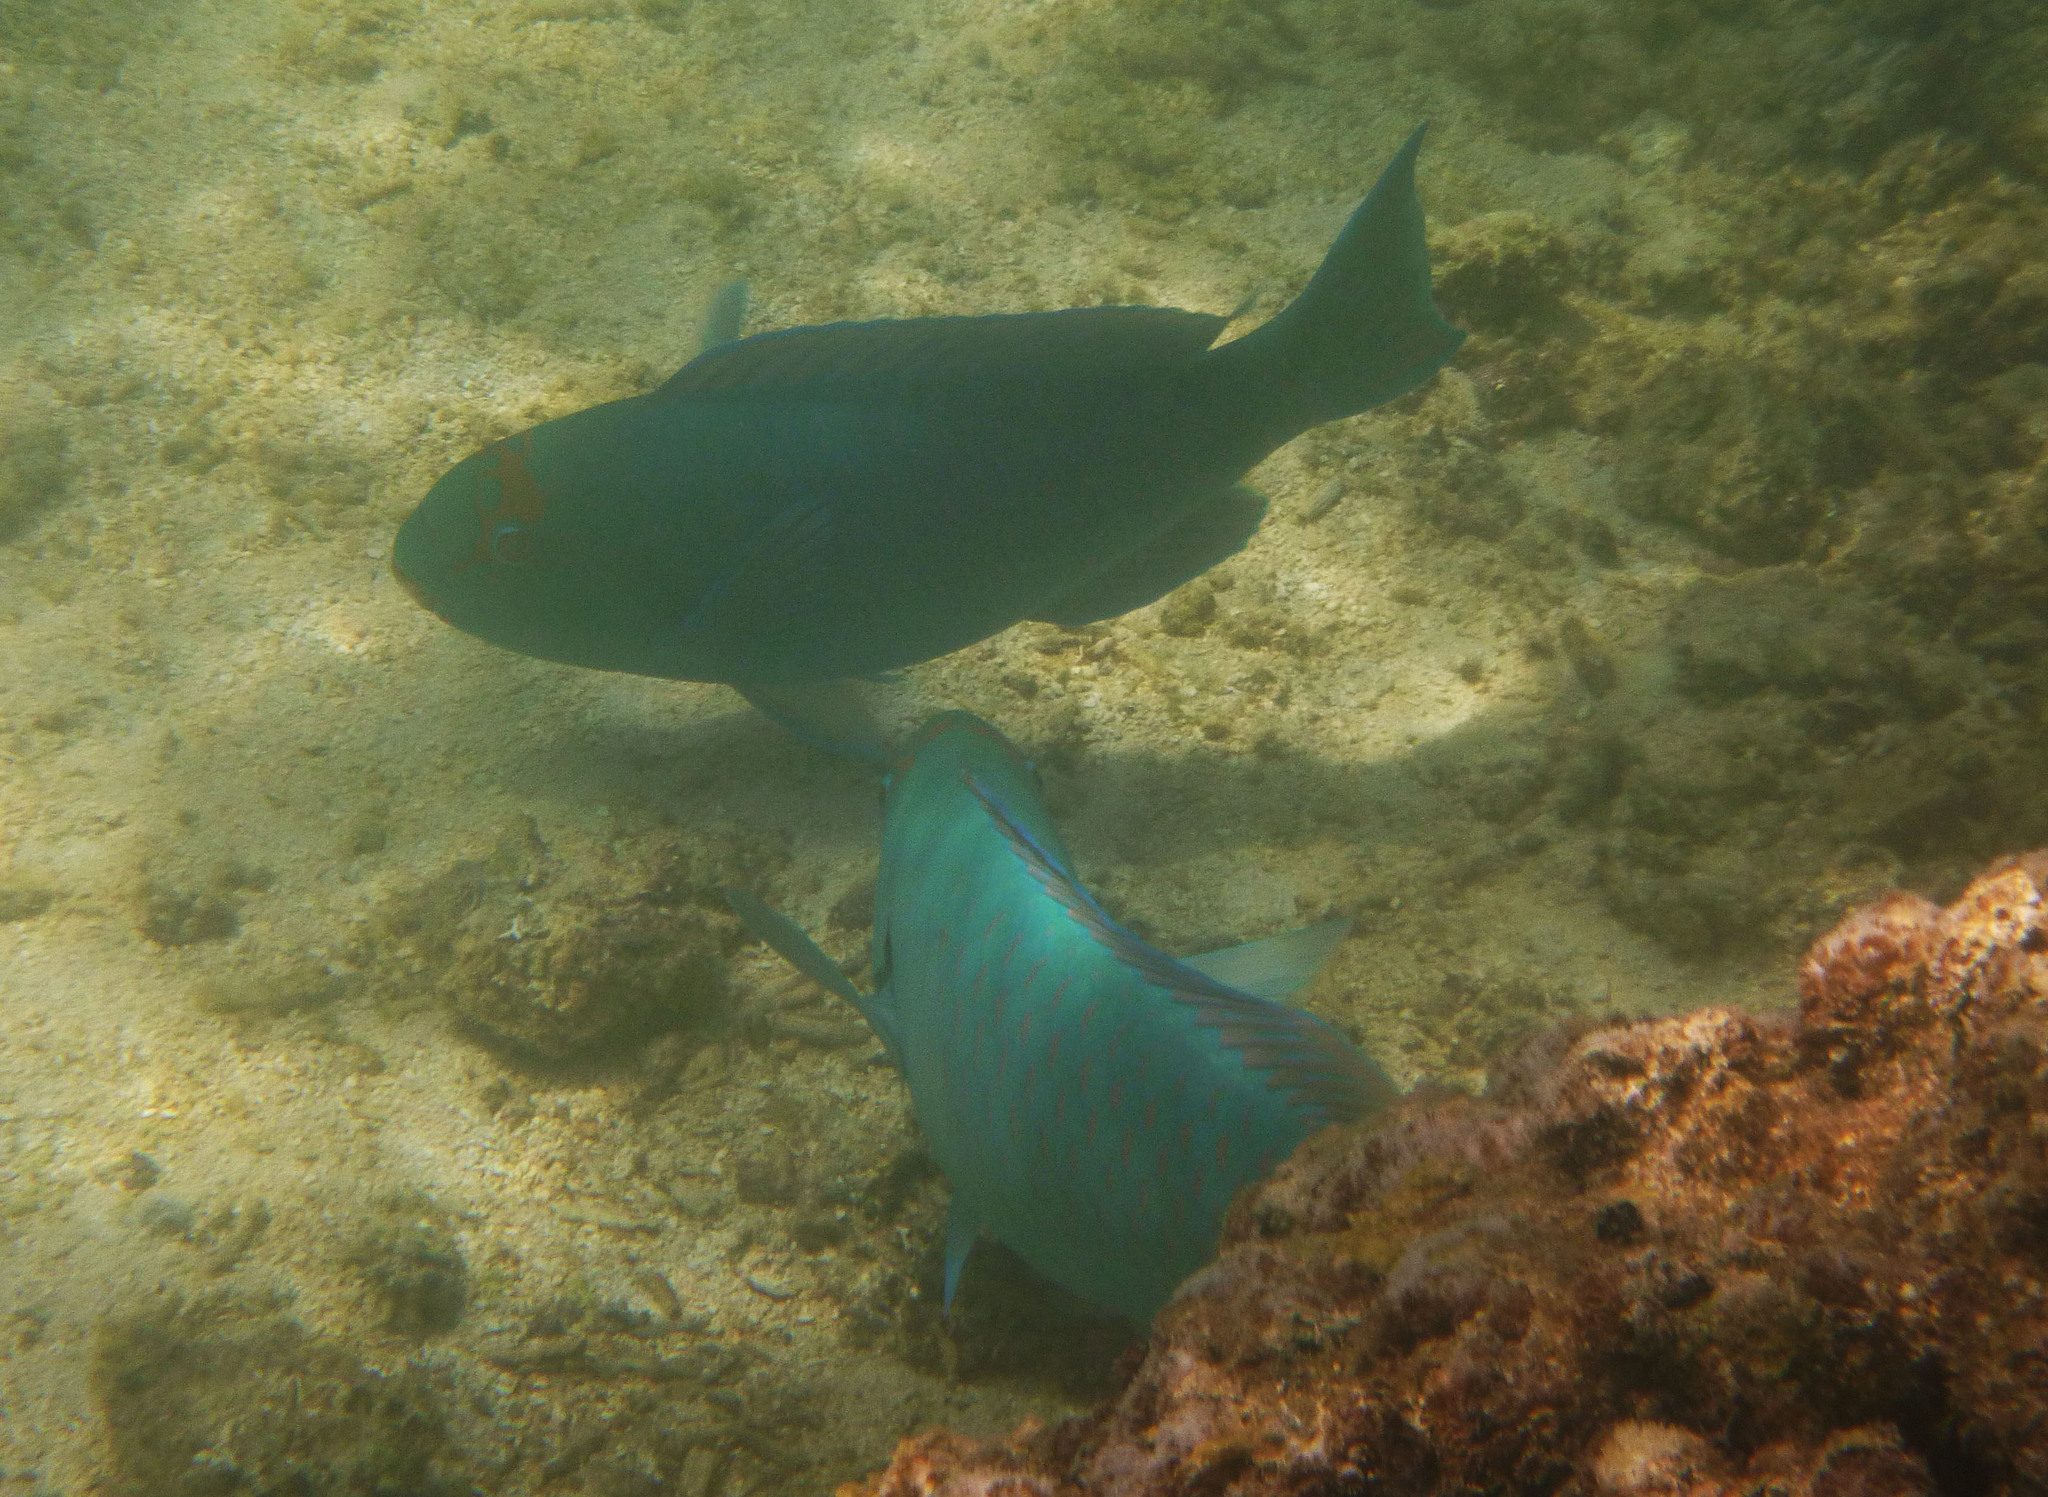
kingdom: Animalia
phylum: Chordata
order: Perciformes
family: Scaridae
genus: Chlorurus
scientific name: Chlorurus frontalis
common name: Reefcrest parrotfish
